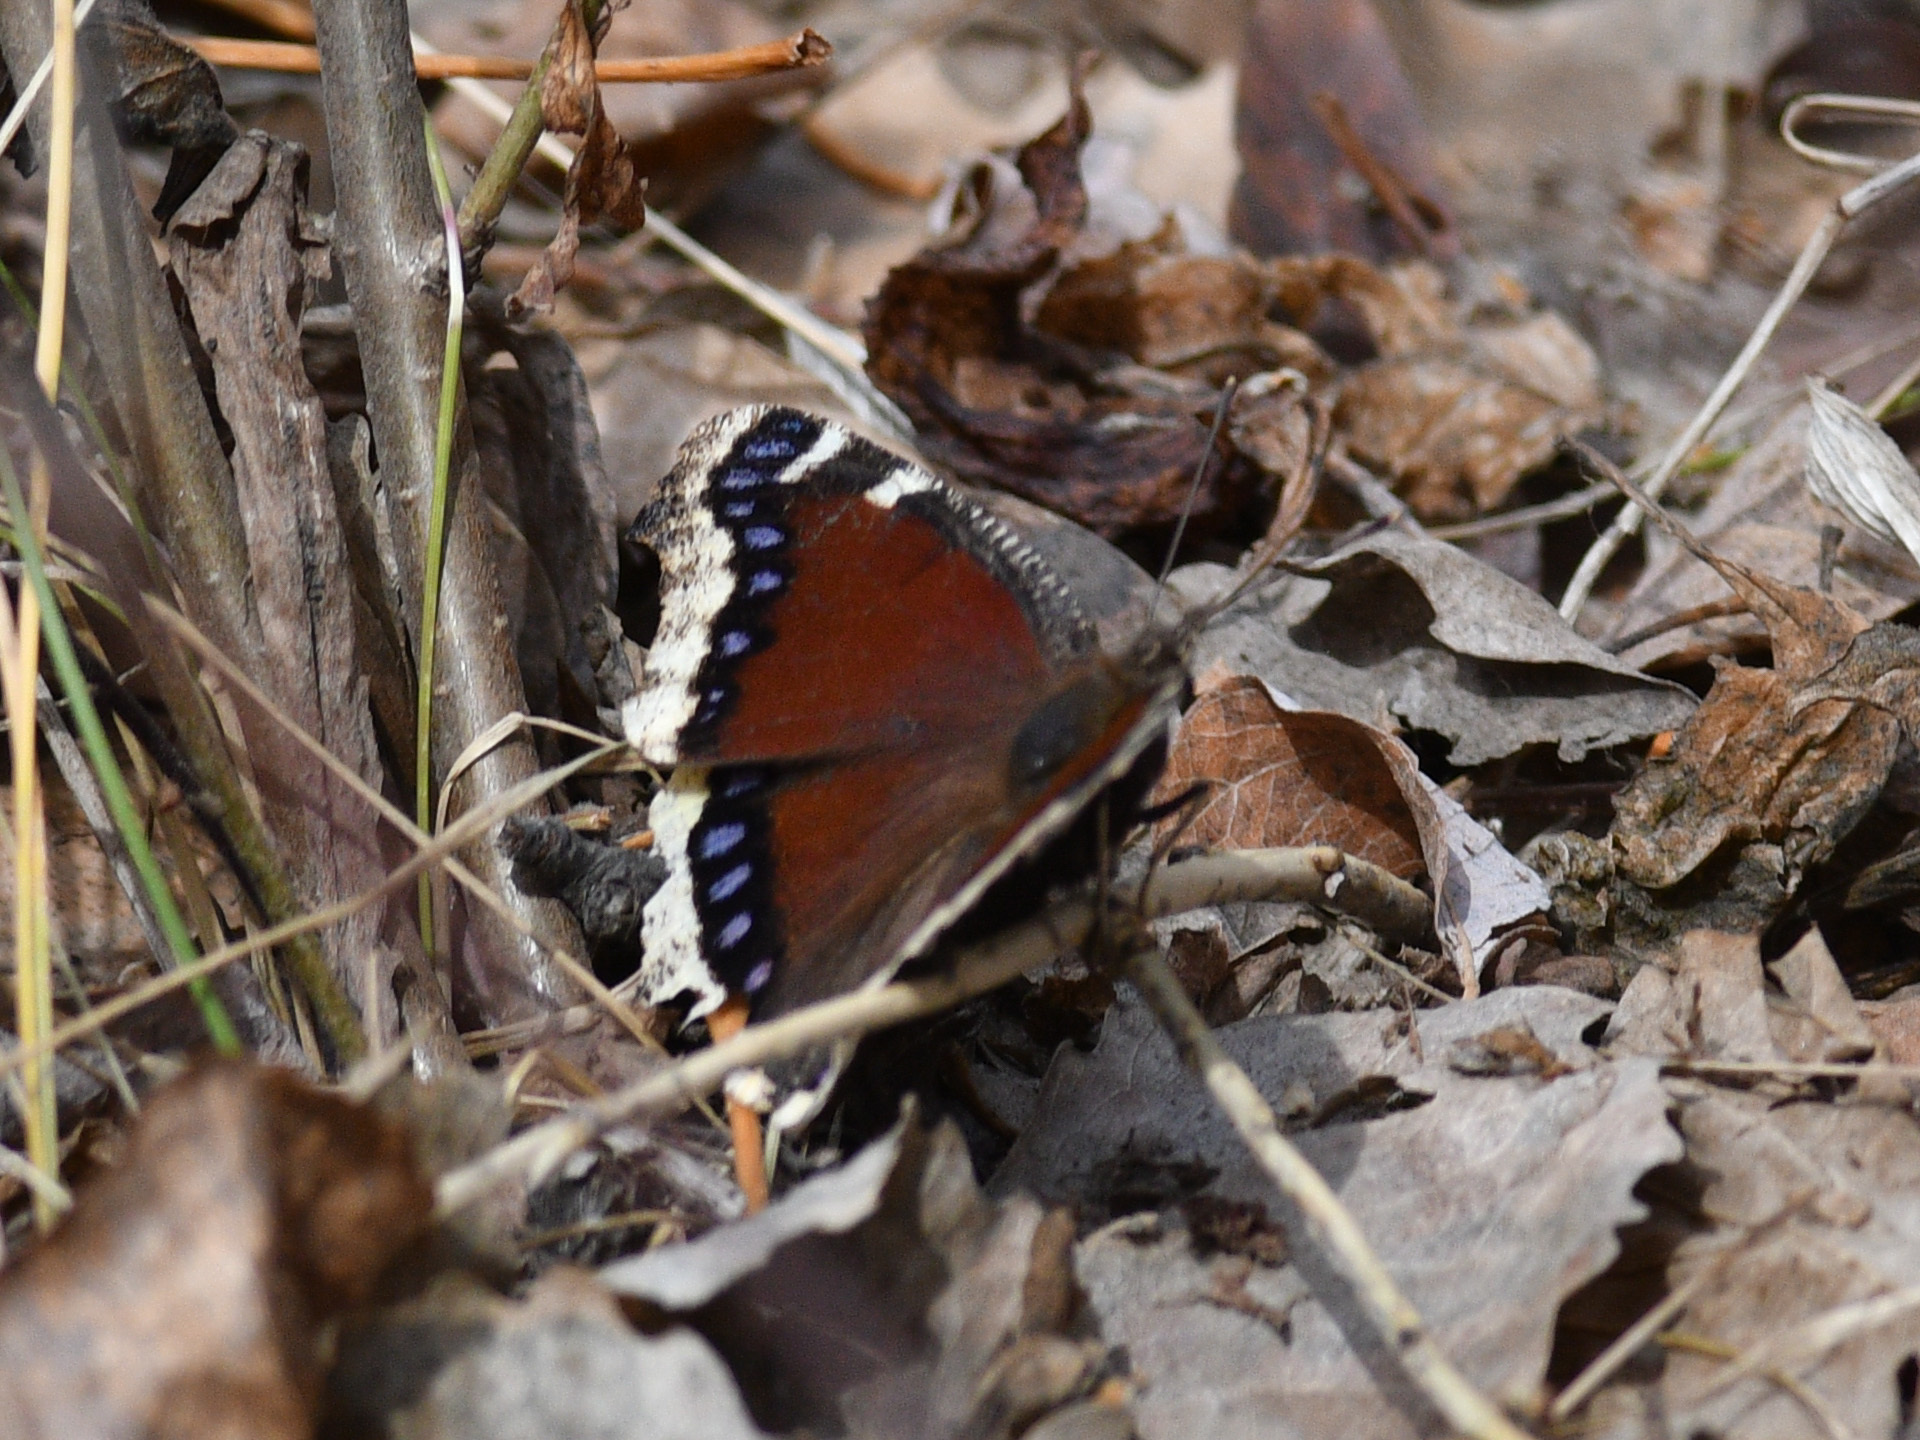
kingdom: Animalia
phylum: Arthropoda
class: Insecta
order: Lepidoptera
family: Nymphalidae
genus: Nymphalis
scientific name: Nymphalis antiopa
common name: Camberwell beauty
